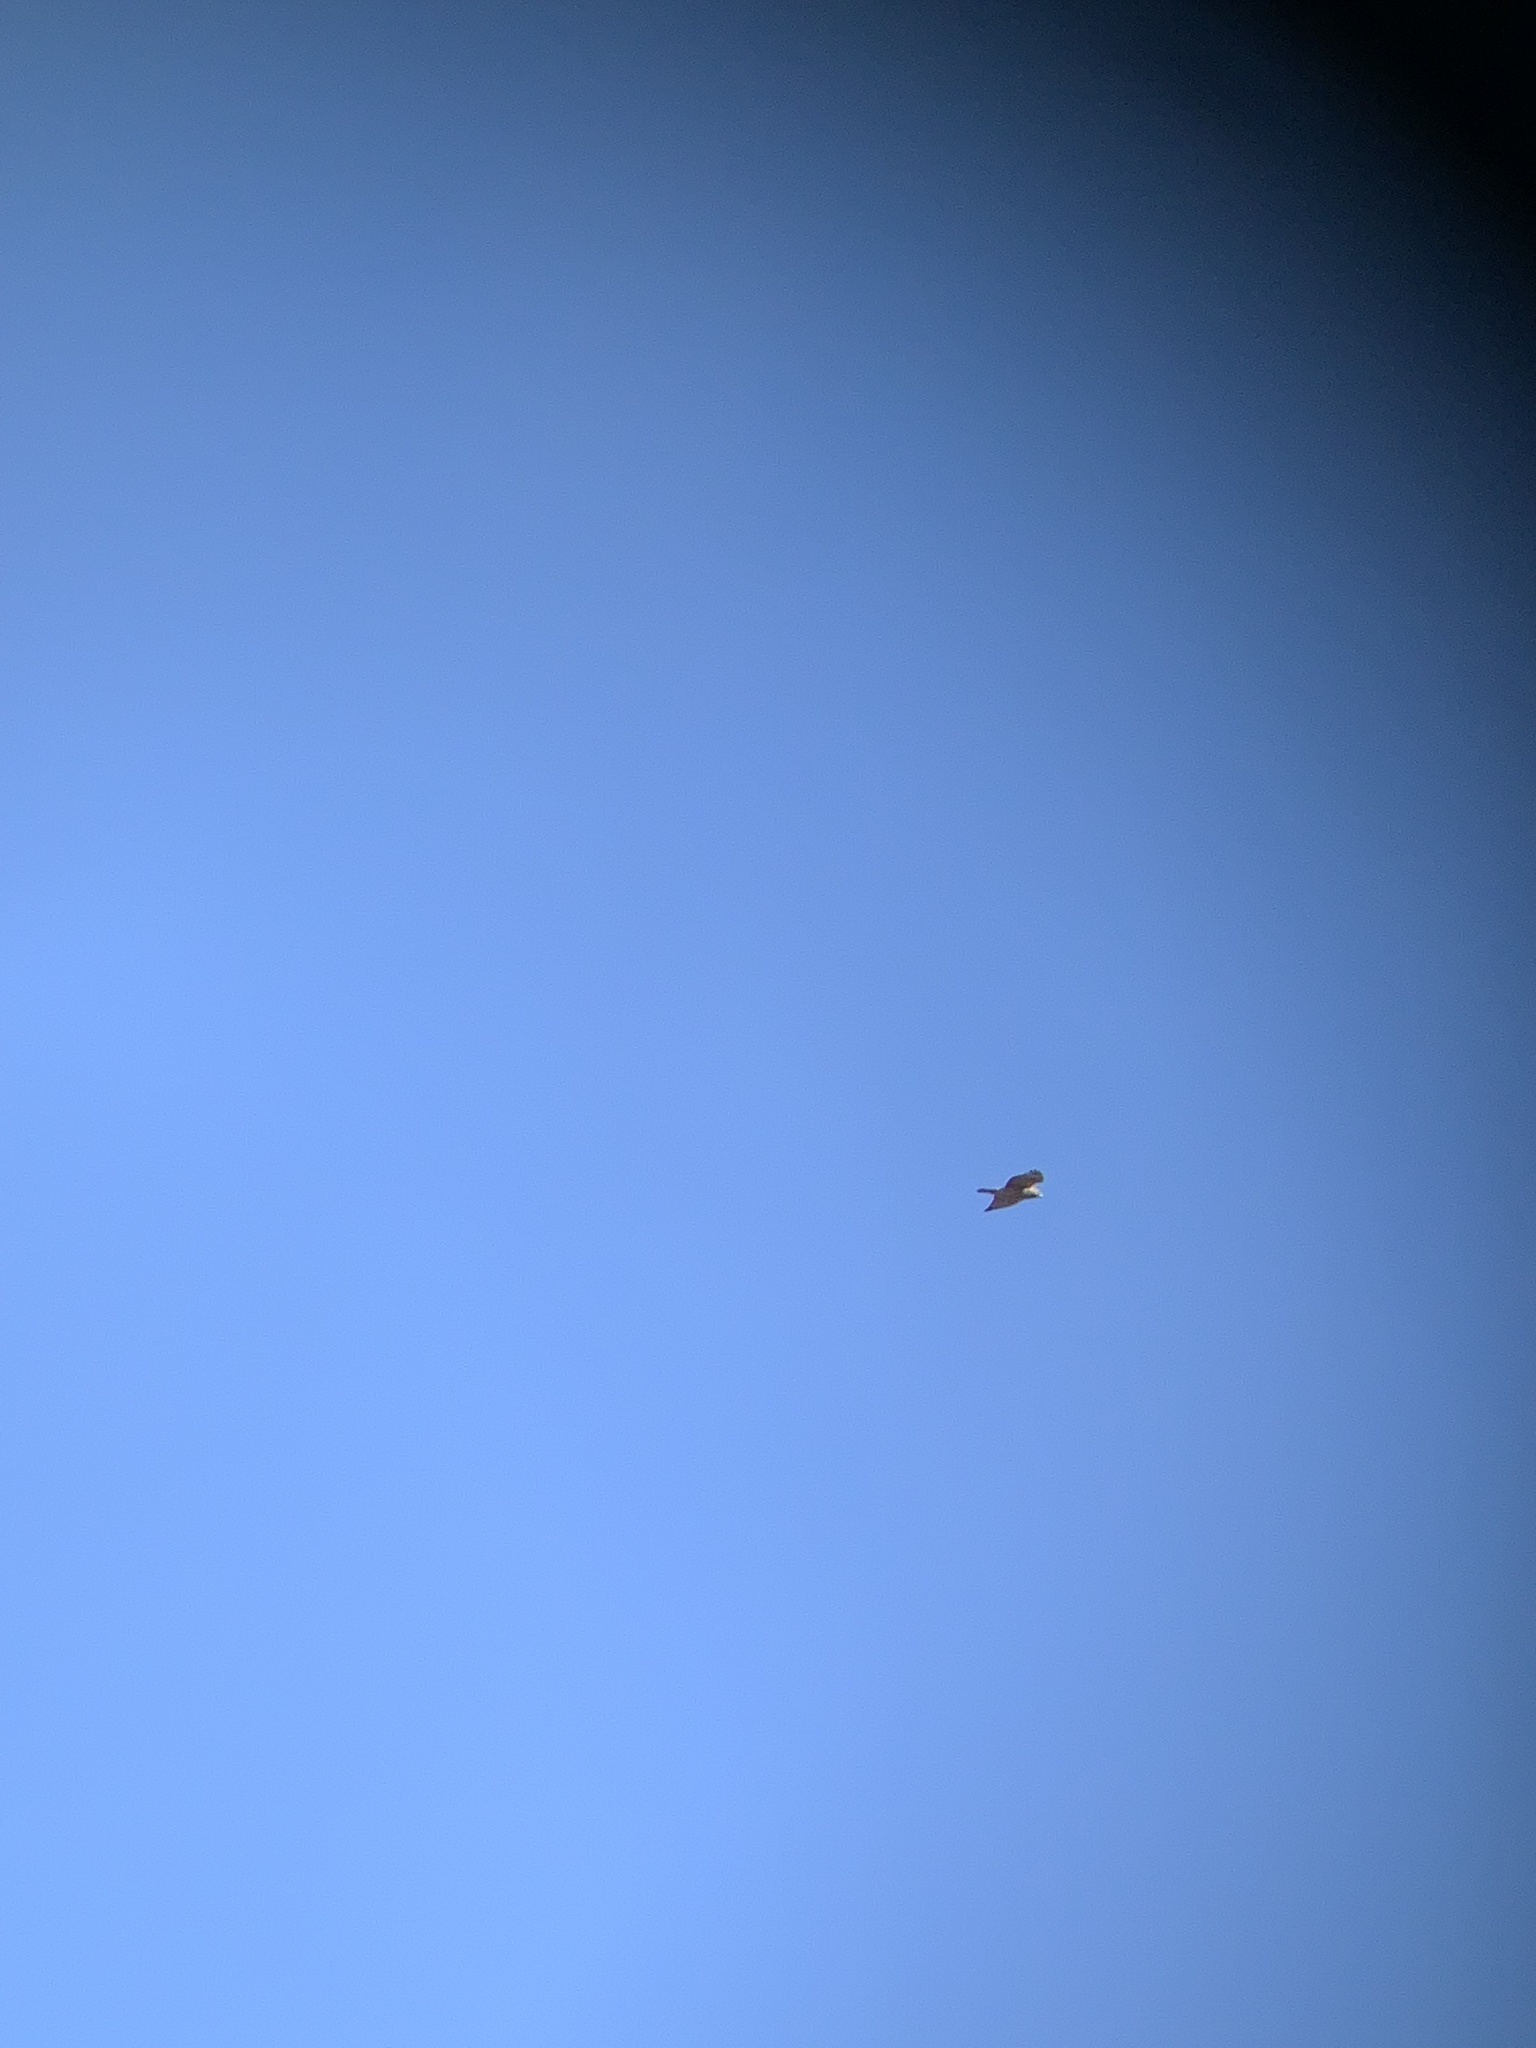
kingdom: Animalia
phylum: Chordata
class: Aves
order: Accipitriformes
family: Accipitridae
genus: Buteo
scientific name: Buteo lineatus
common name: Red-shouldered hawk
